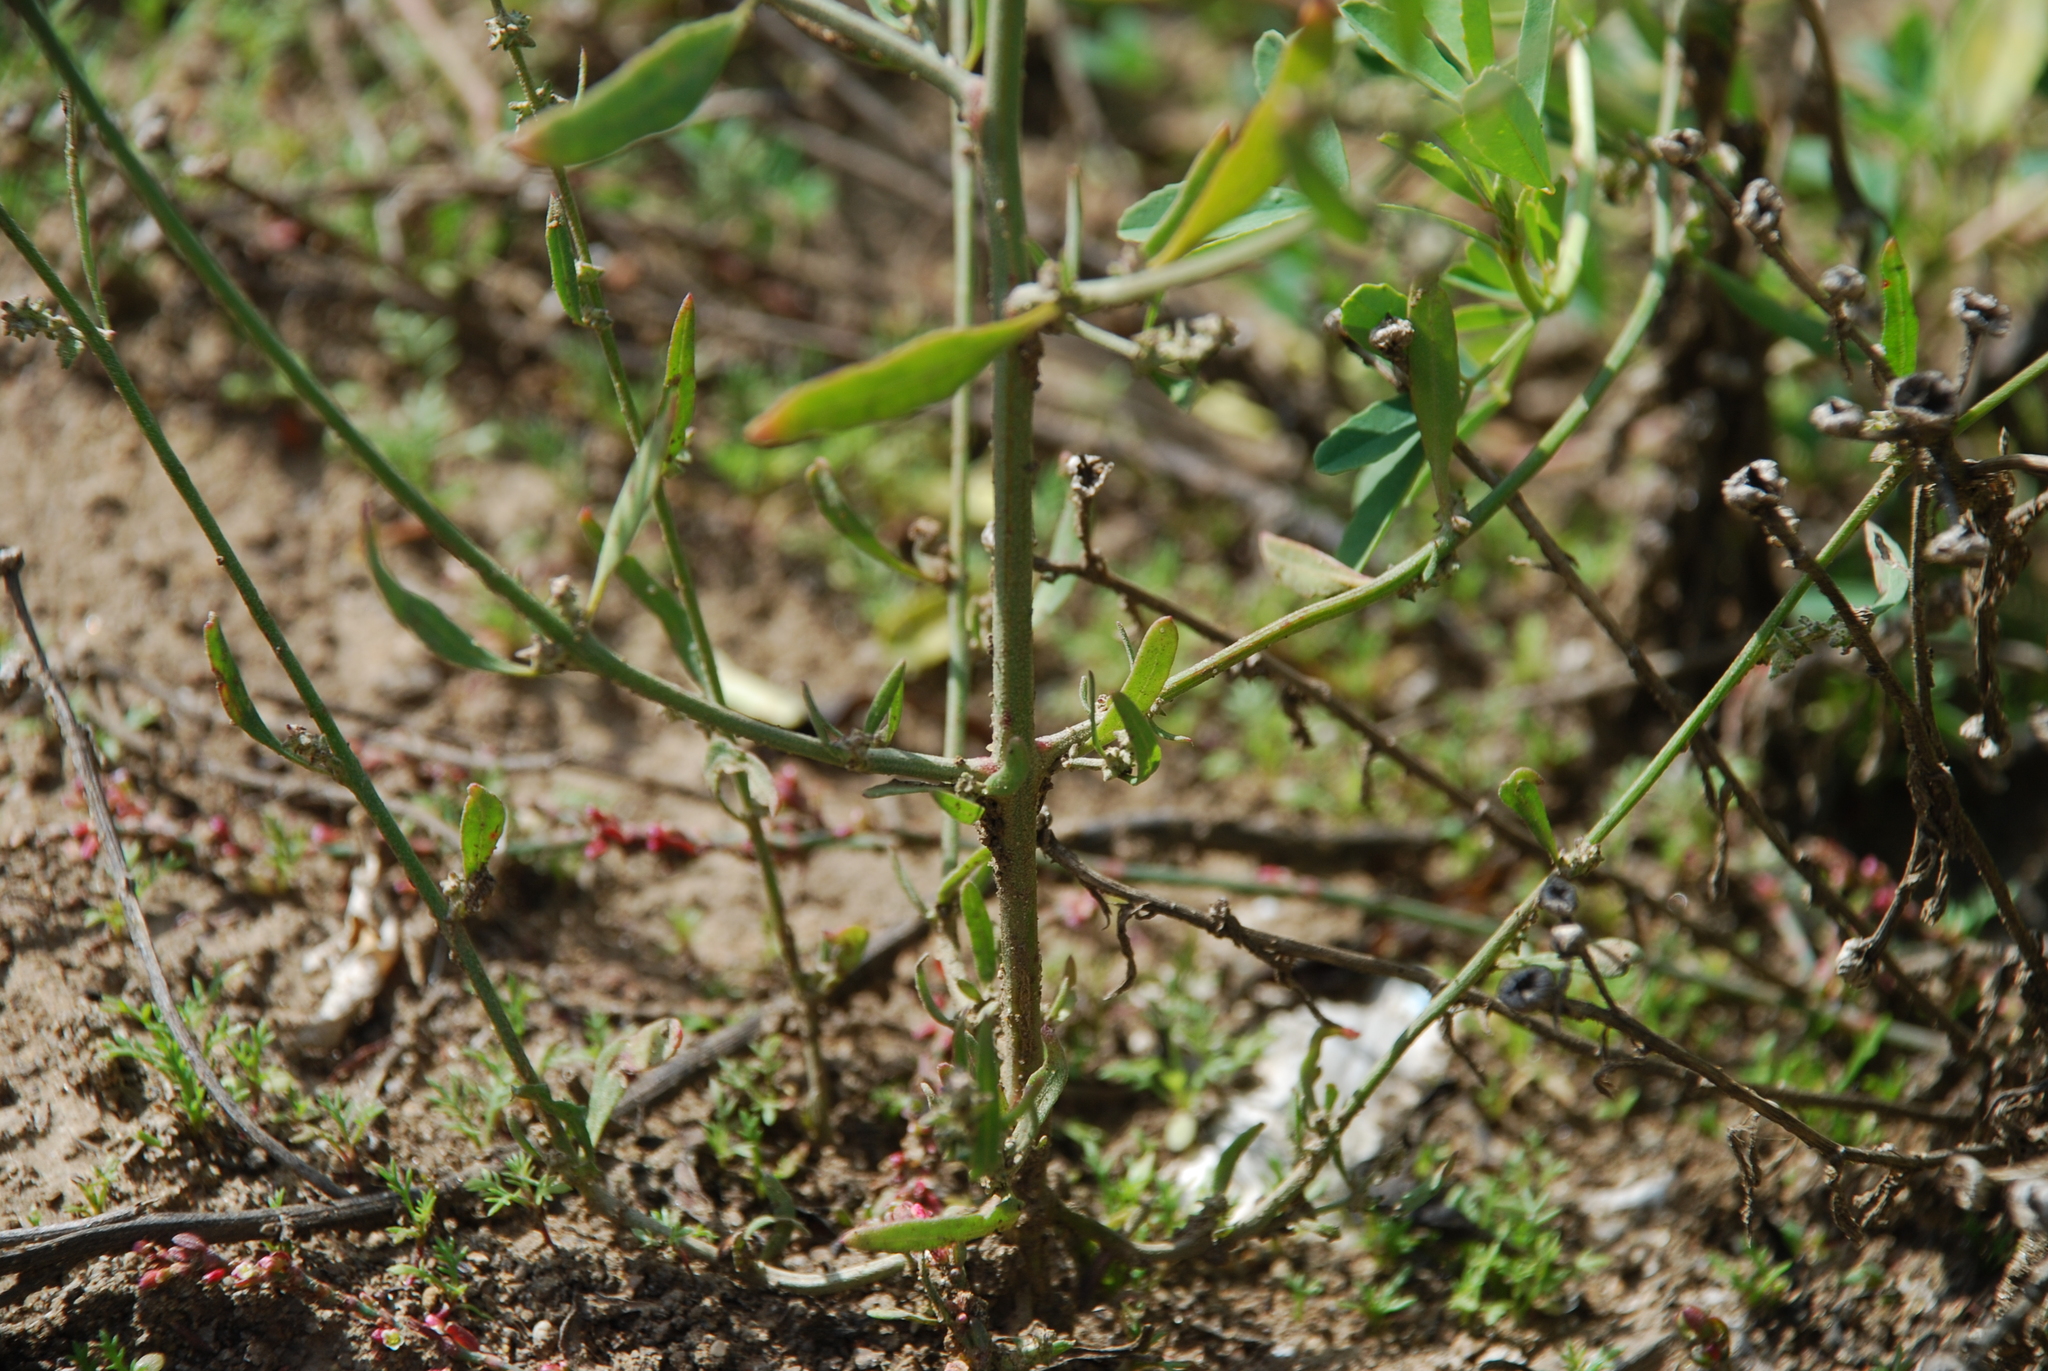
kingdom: Plantae
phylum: Tracheophyta
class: Magnoliopsida
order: Caryophyllales
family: Amaranthaceae
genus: Atriplex
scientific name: Atriplex patula
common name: Common orache
